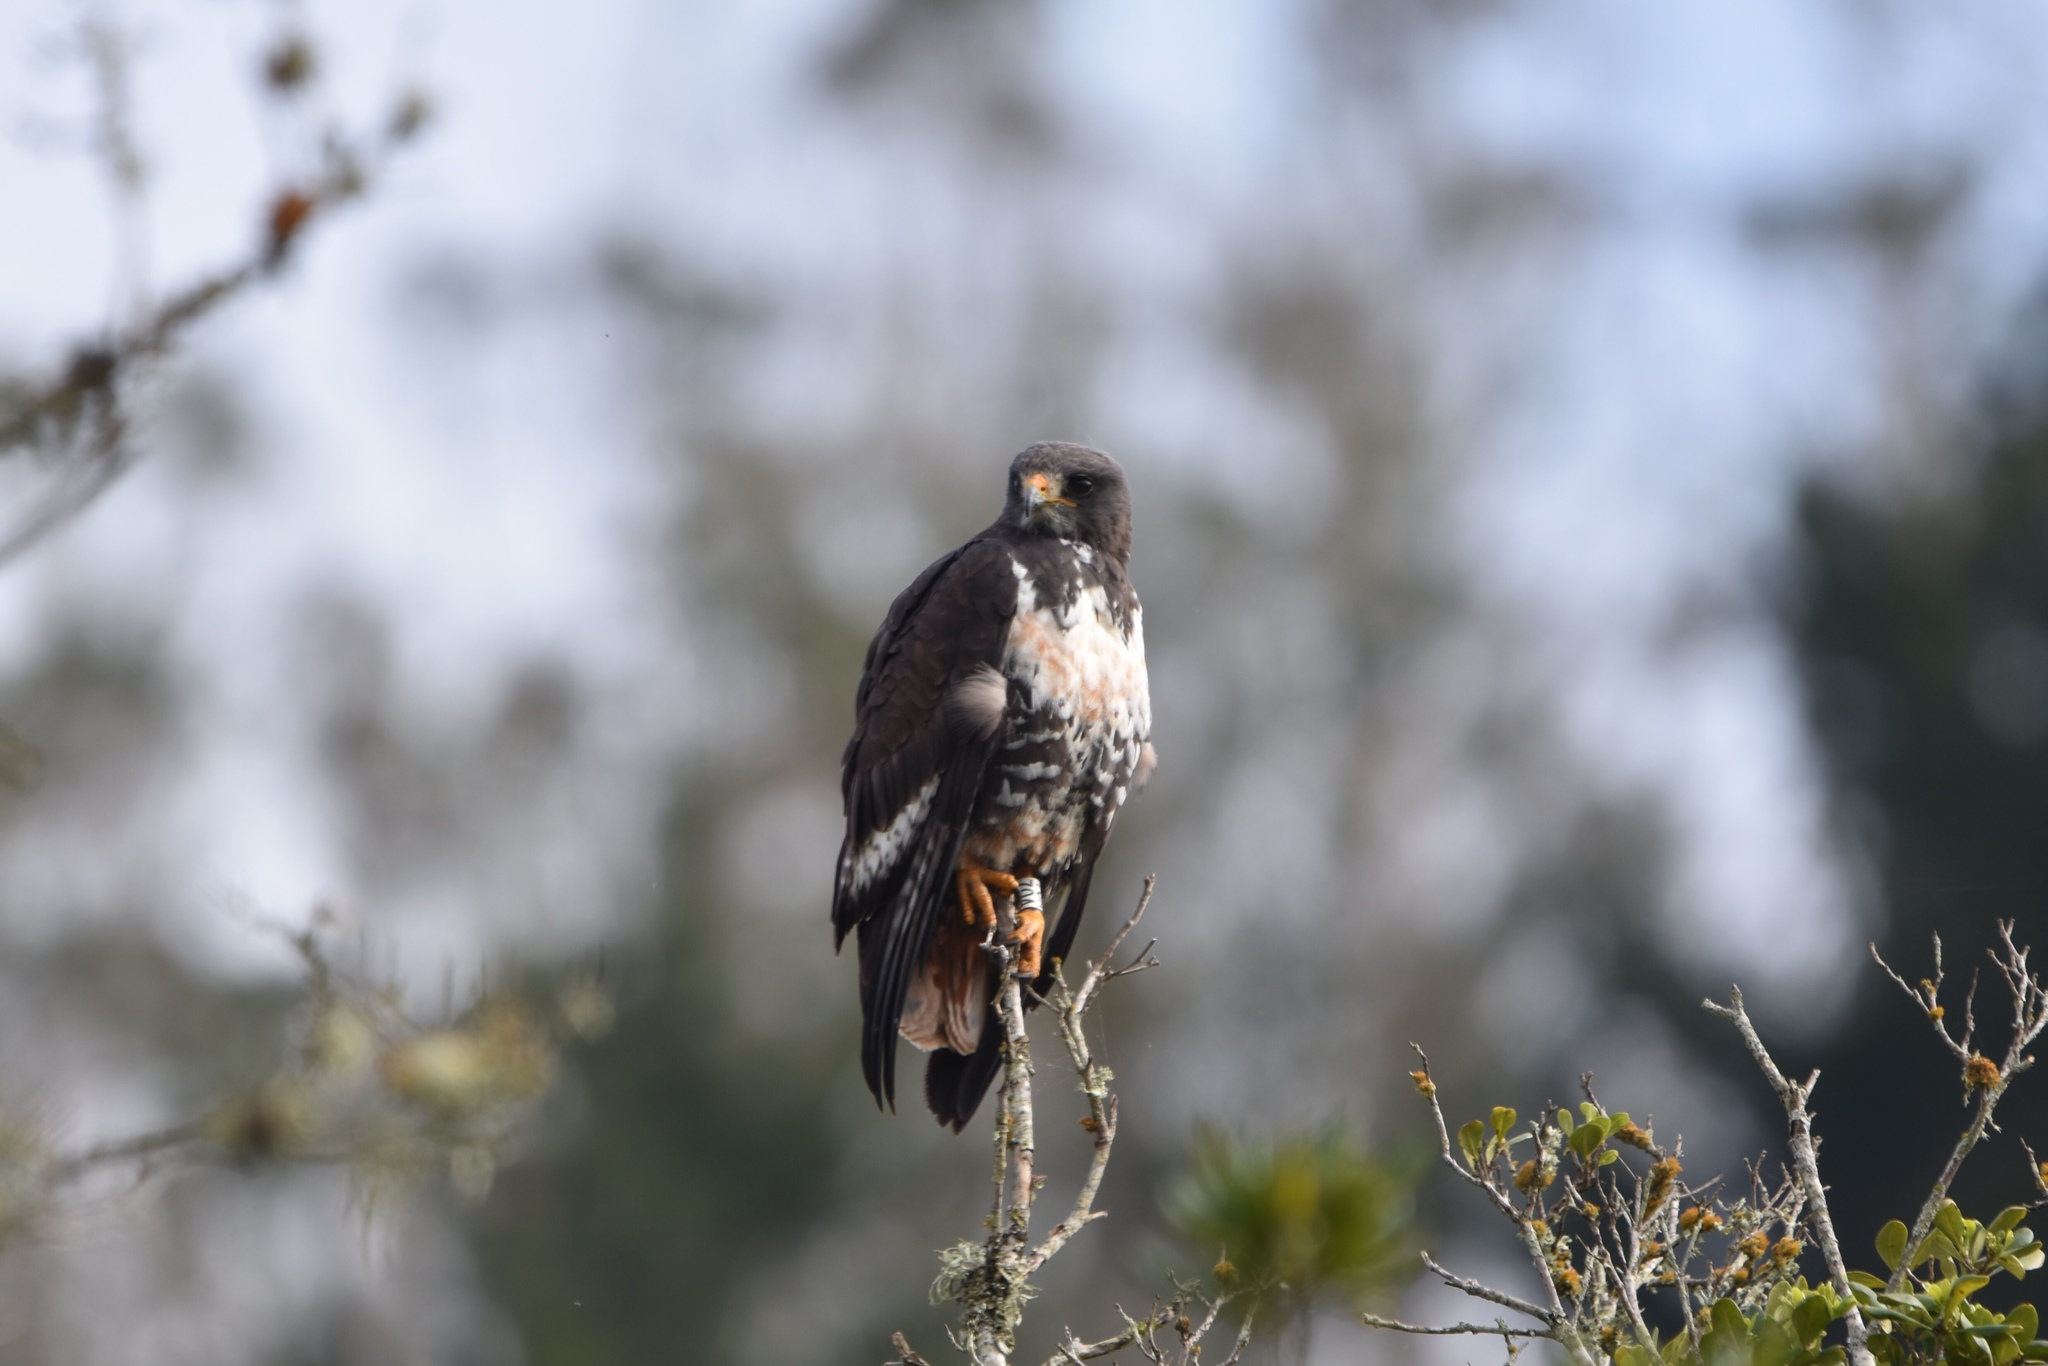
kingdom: Animalia
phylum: Chordata
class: Aves
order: Accipitriformes
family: Accipitridae
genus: Buteo
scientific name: Buteo rufofuscus
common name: Jackal buzzard
